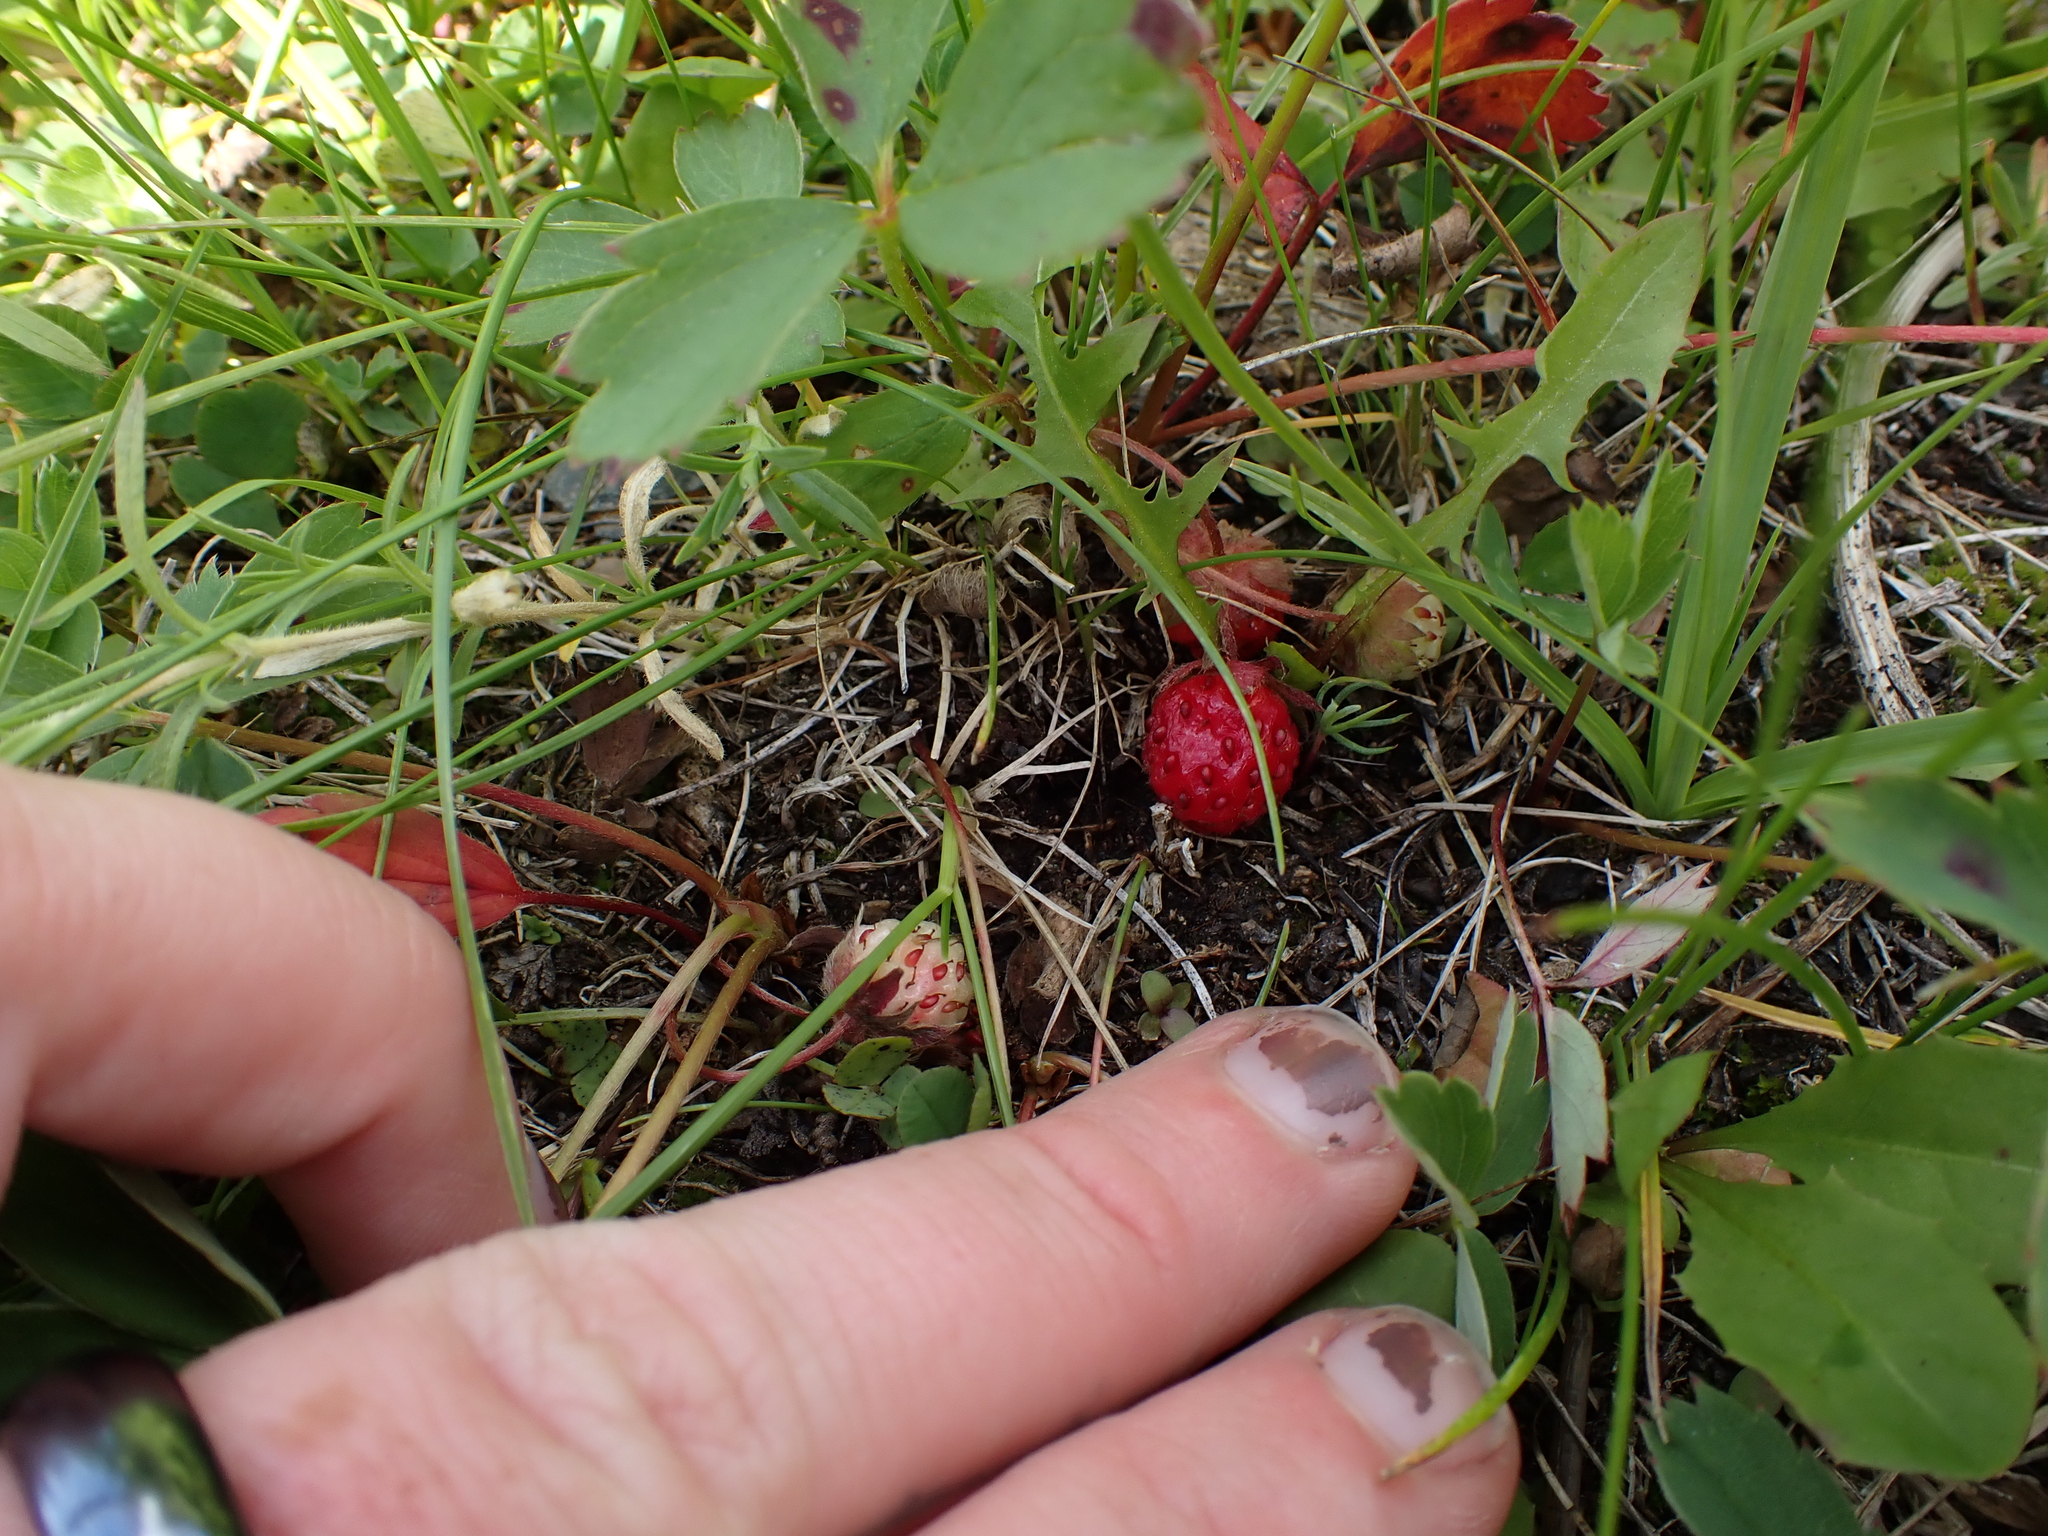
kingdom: Plantae
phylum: Tracheophyta
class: Magnoliopsida
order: Rosales
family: Rosaceae
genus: Fragaria
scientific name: Fragaria virginiana
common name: Thickleaved wild strawberry
